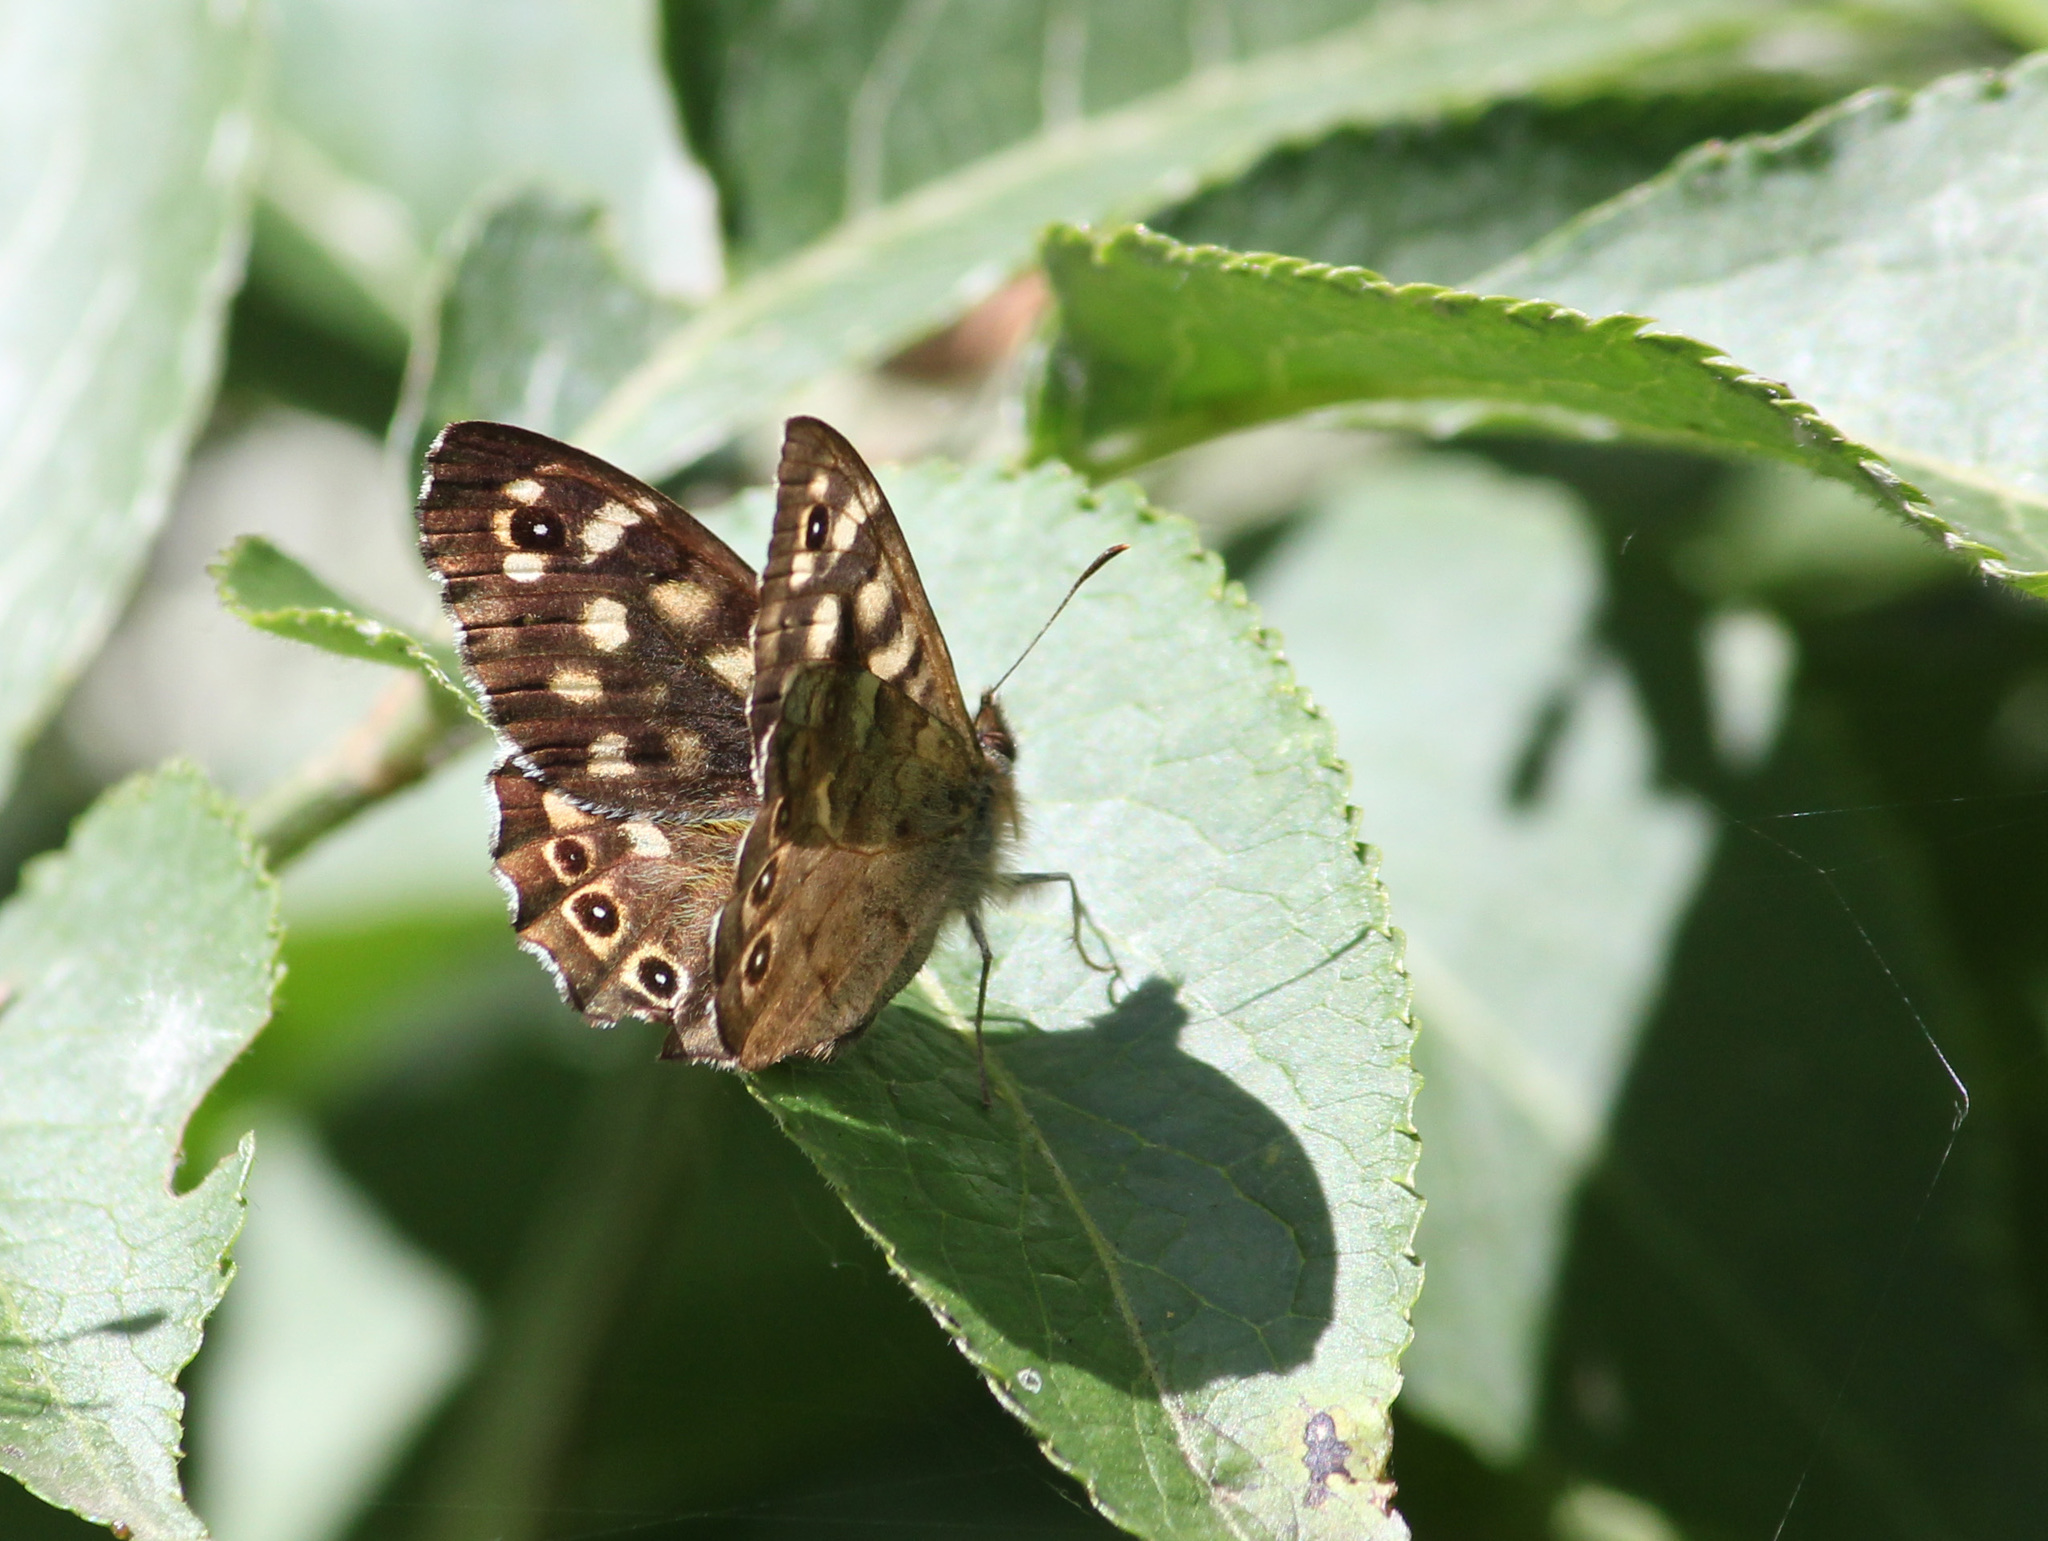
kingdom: Animalia
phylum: Arthropoda
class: Insecta
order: Lepidoptera
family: Nymphalidae
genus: Pararge
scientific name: Pararge aegeria
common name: Speckled wood
